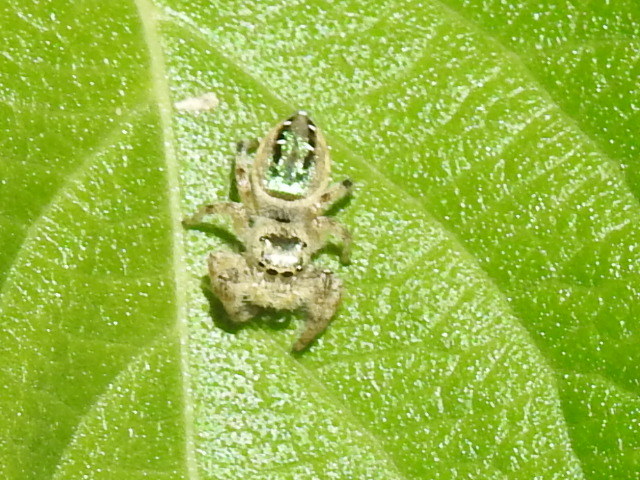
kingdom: Animalia
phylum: Arthropoda
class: Arachnida
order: Araneae
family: Salticidae
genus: Paraphidippus
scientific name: Paraphidippus aurantius
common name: Jumping spiders
